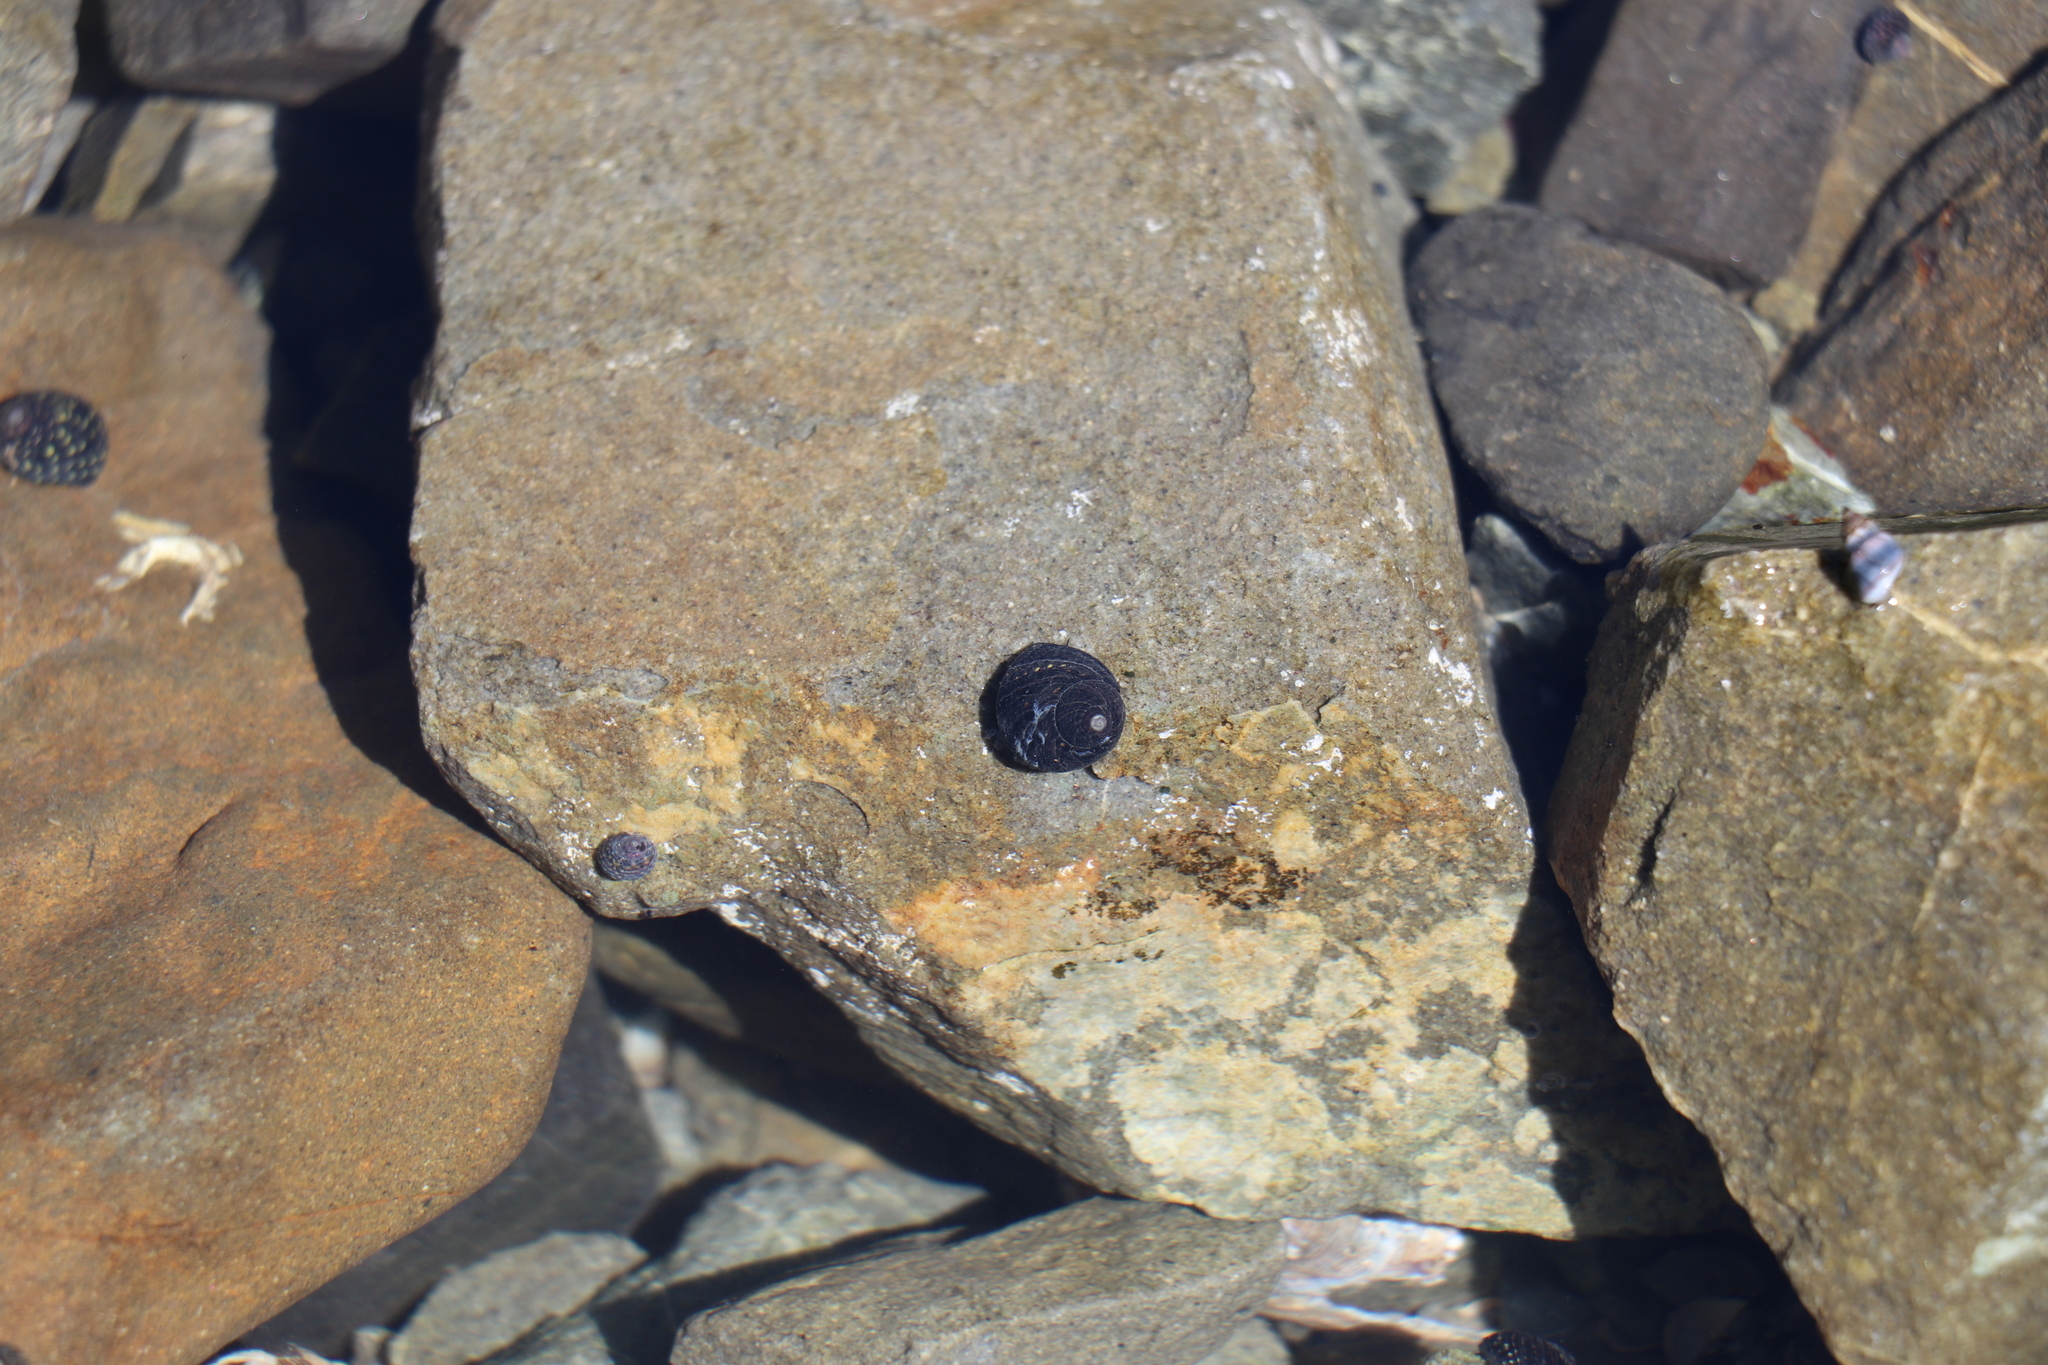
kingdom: Animalia
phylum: Mollusca
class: Gastropoda
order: Trochida
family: Trochidae
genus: Diloma
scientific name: Diloma aridum
